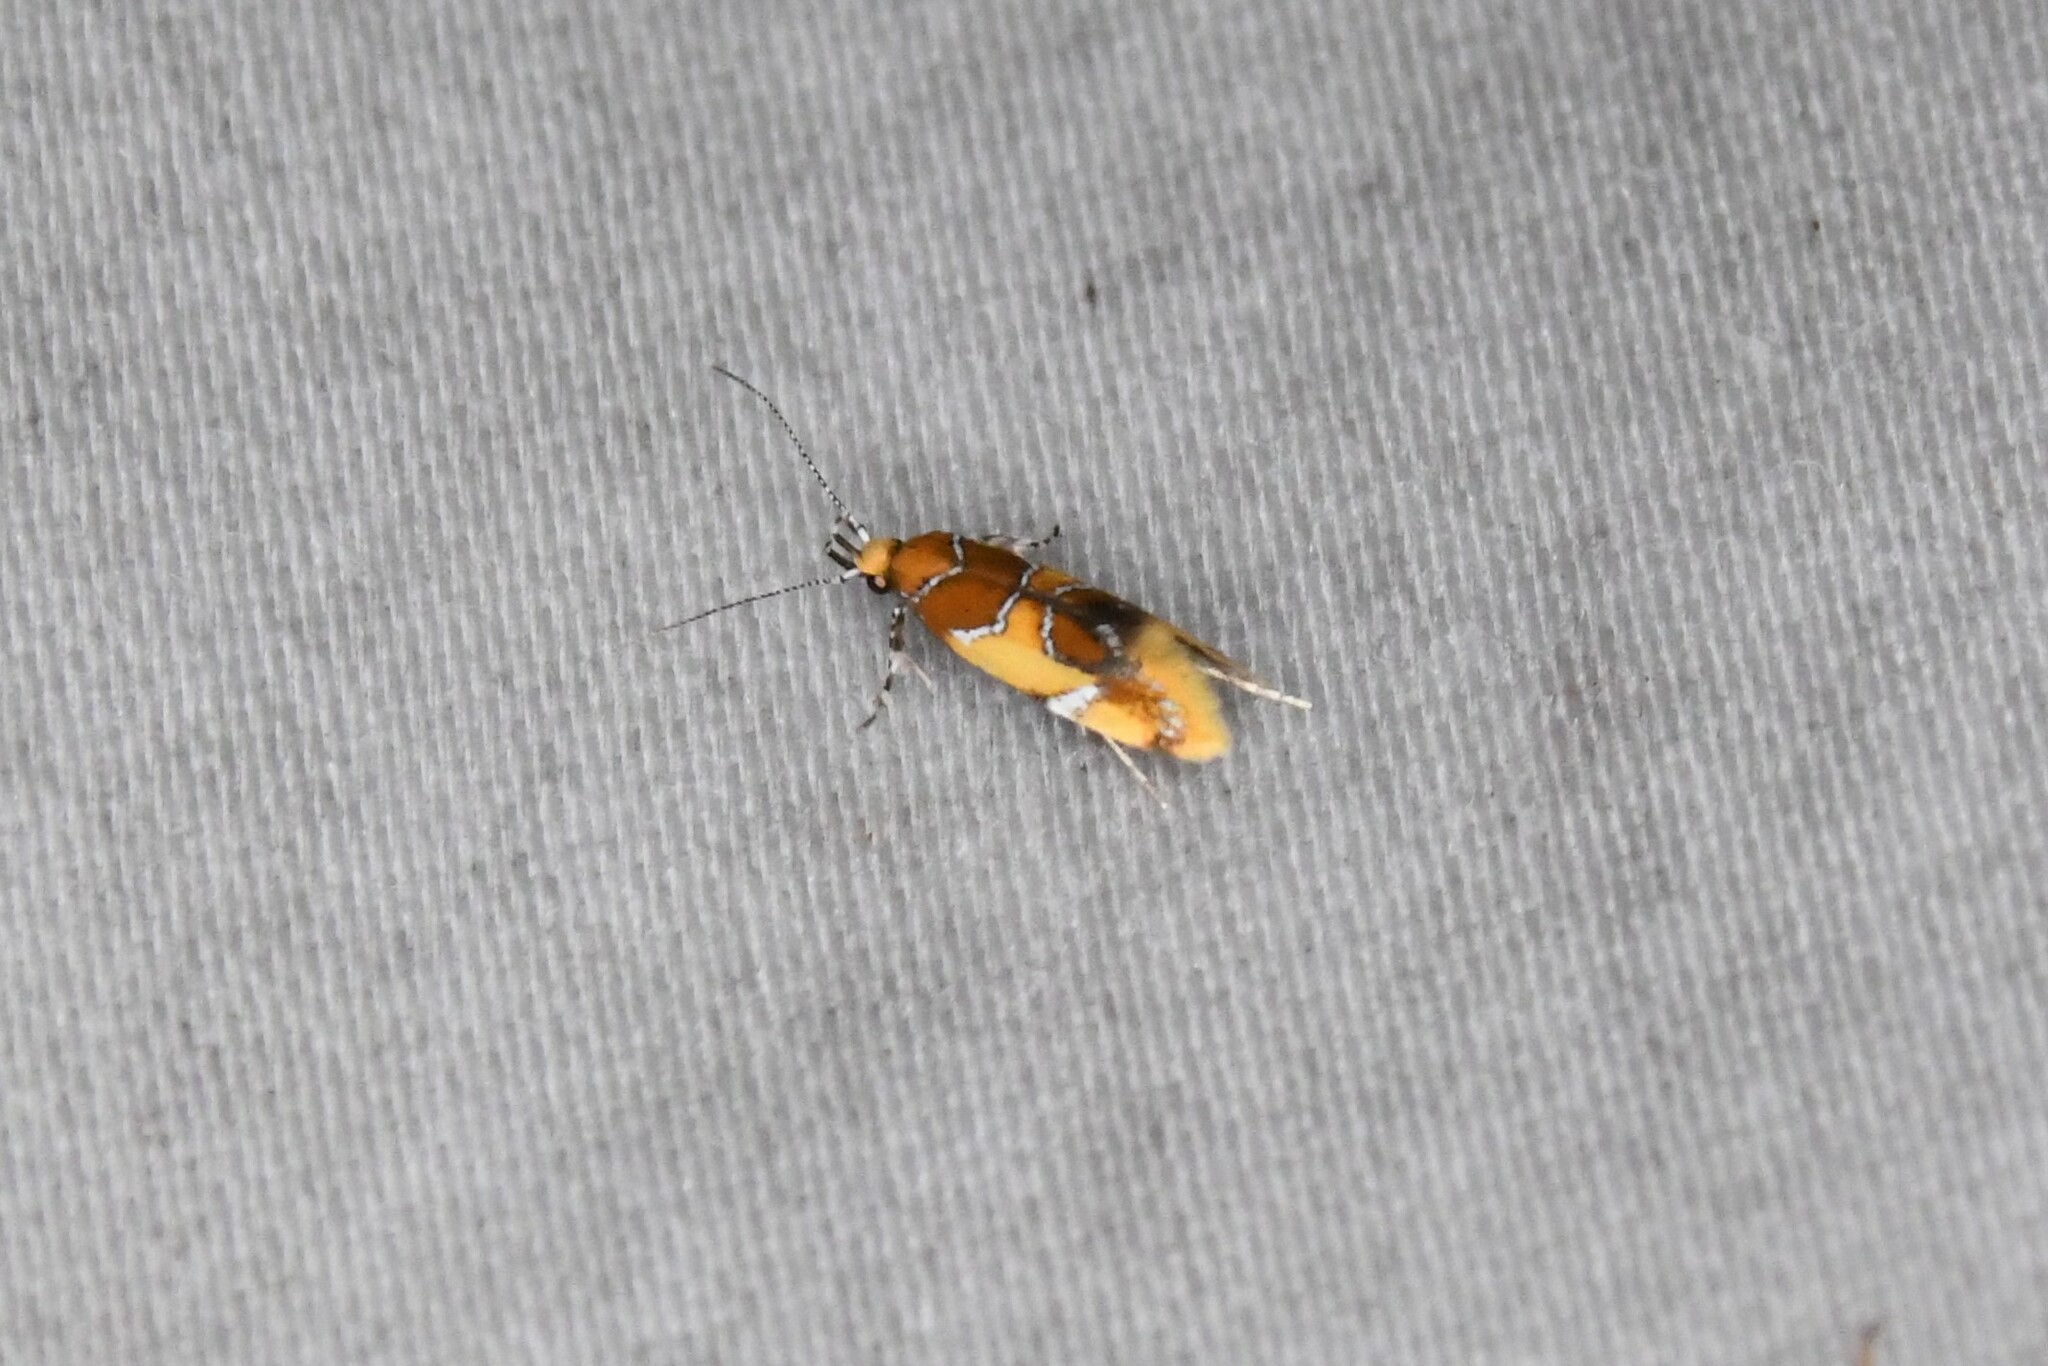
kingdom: Animalia
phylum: Arthropoda
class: Insecta
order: Lepidoptera
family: Oecophoridae
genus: Callima
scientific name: Callima argenticinctella
